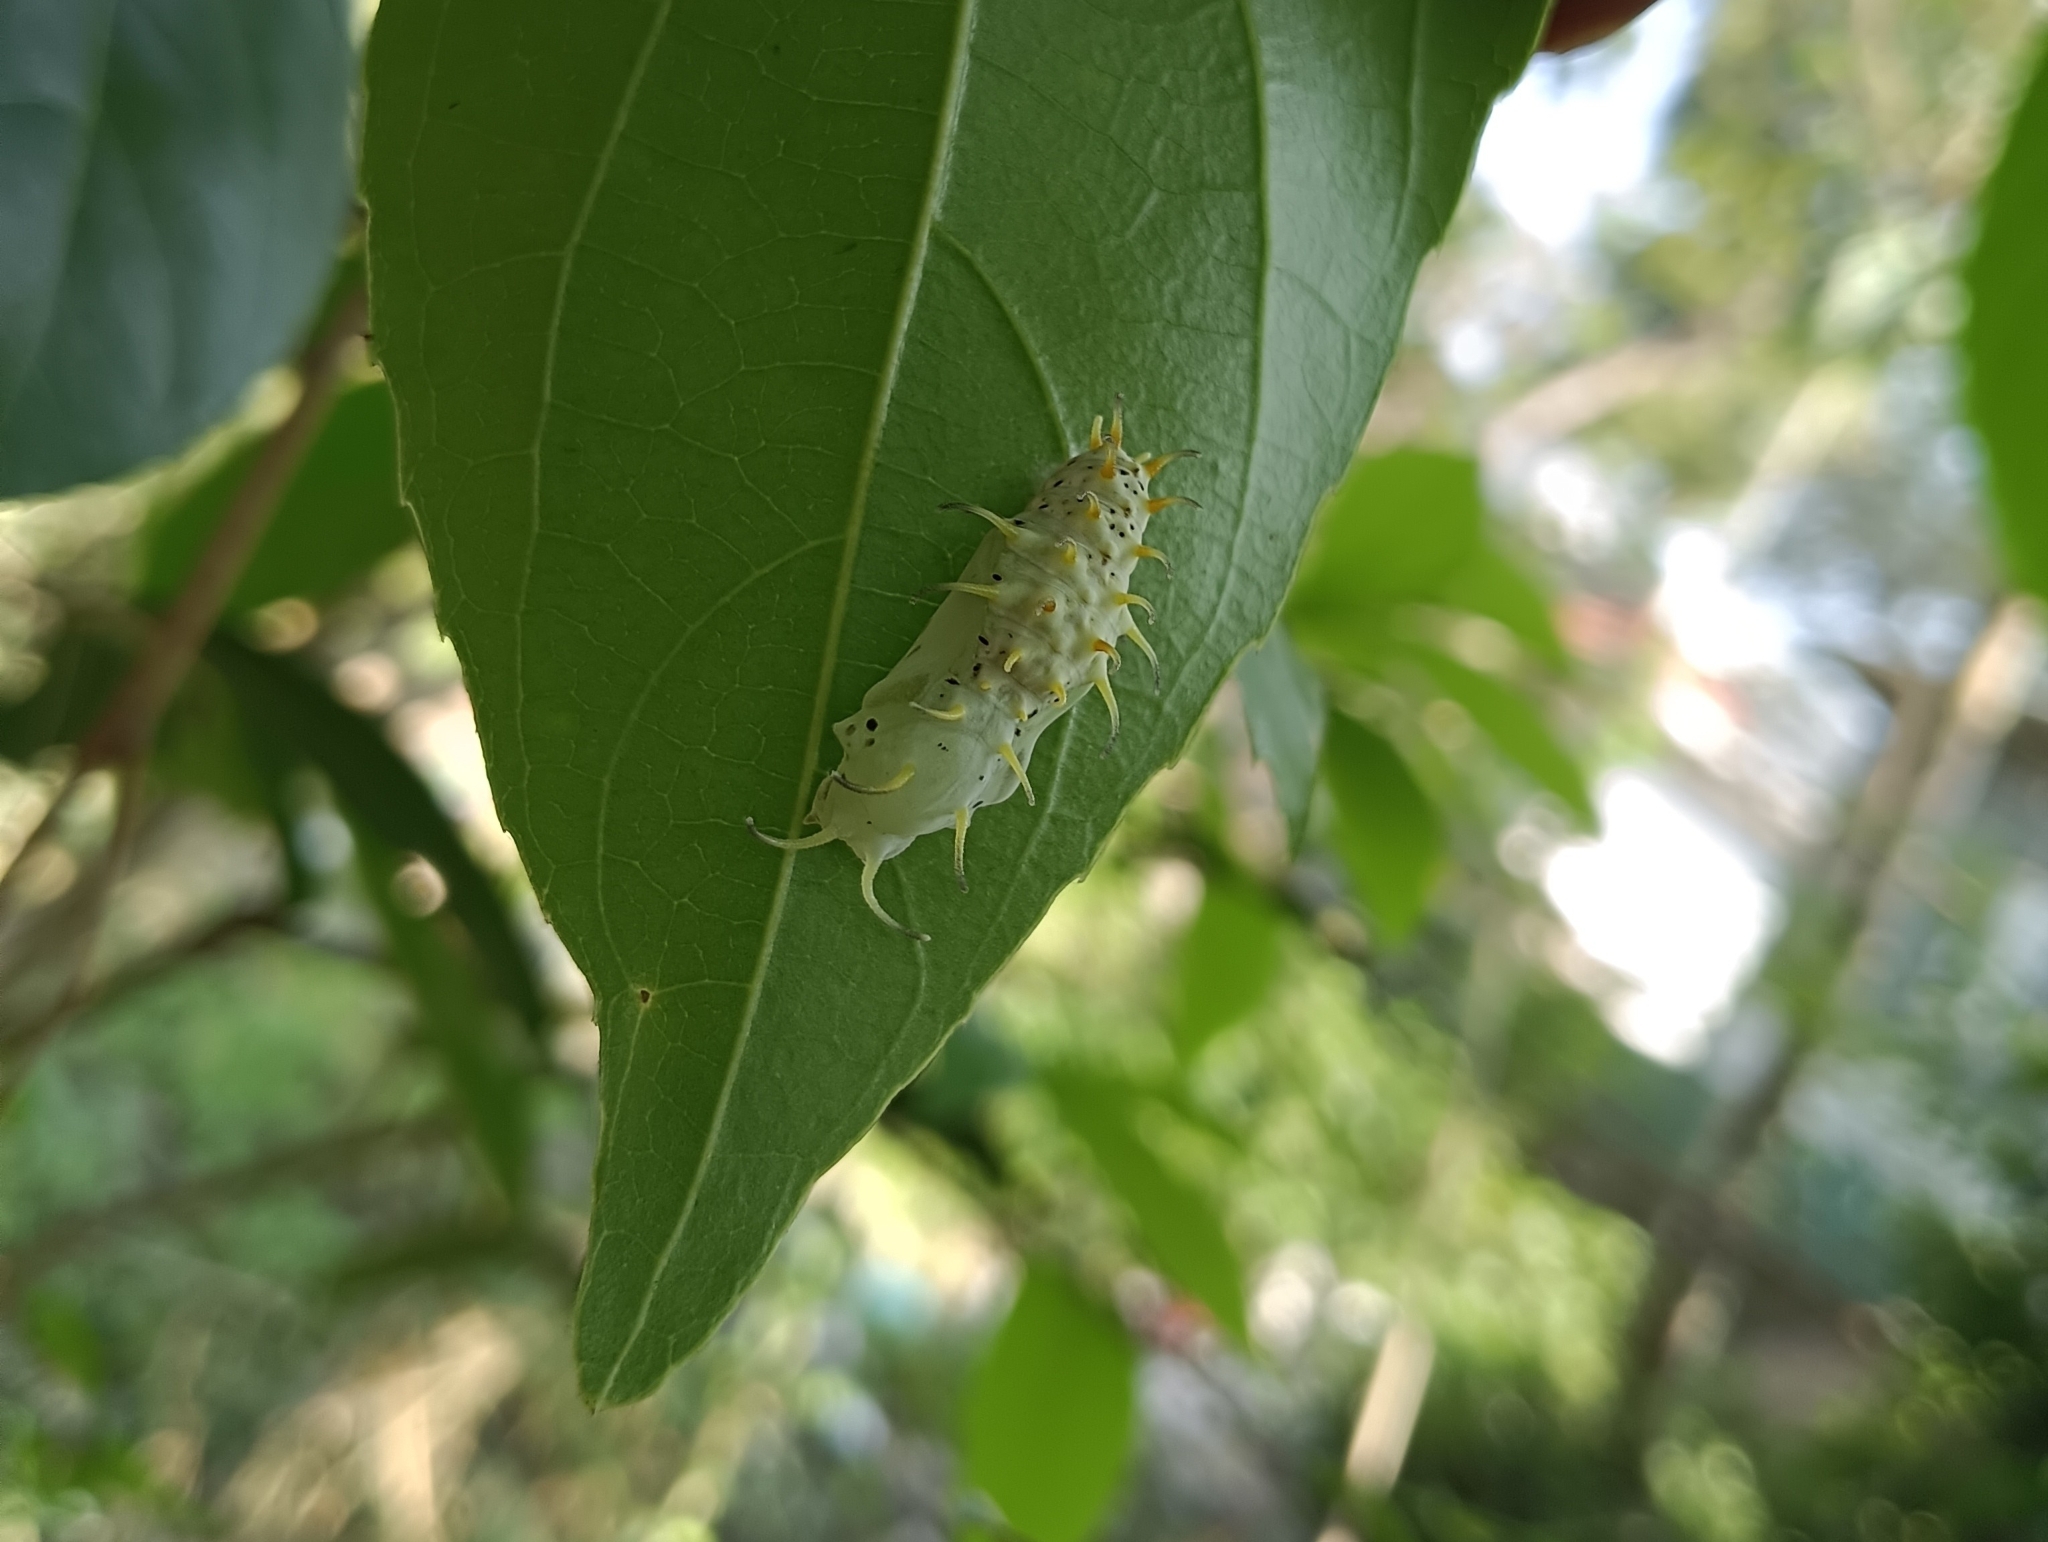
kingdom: Animalia
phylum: Arthropoda
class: Insecta
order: Lepidoptera
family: Nymphalidae
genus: Cirrochroa
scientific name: Cirrochroa thais
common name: Tamil yeoman
